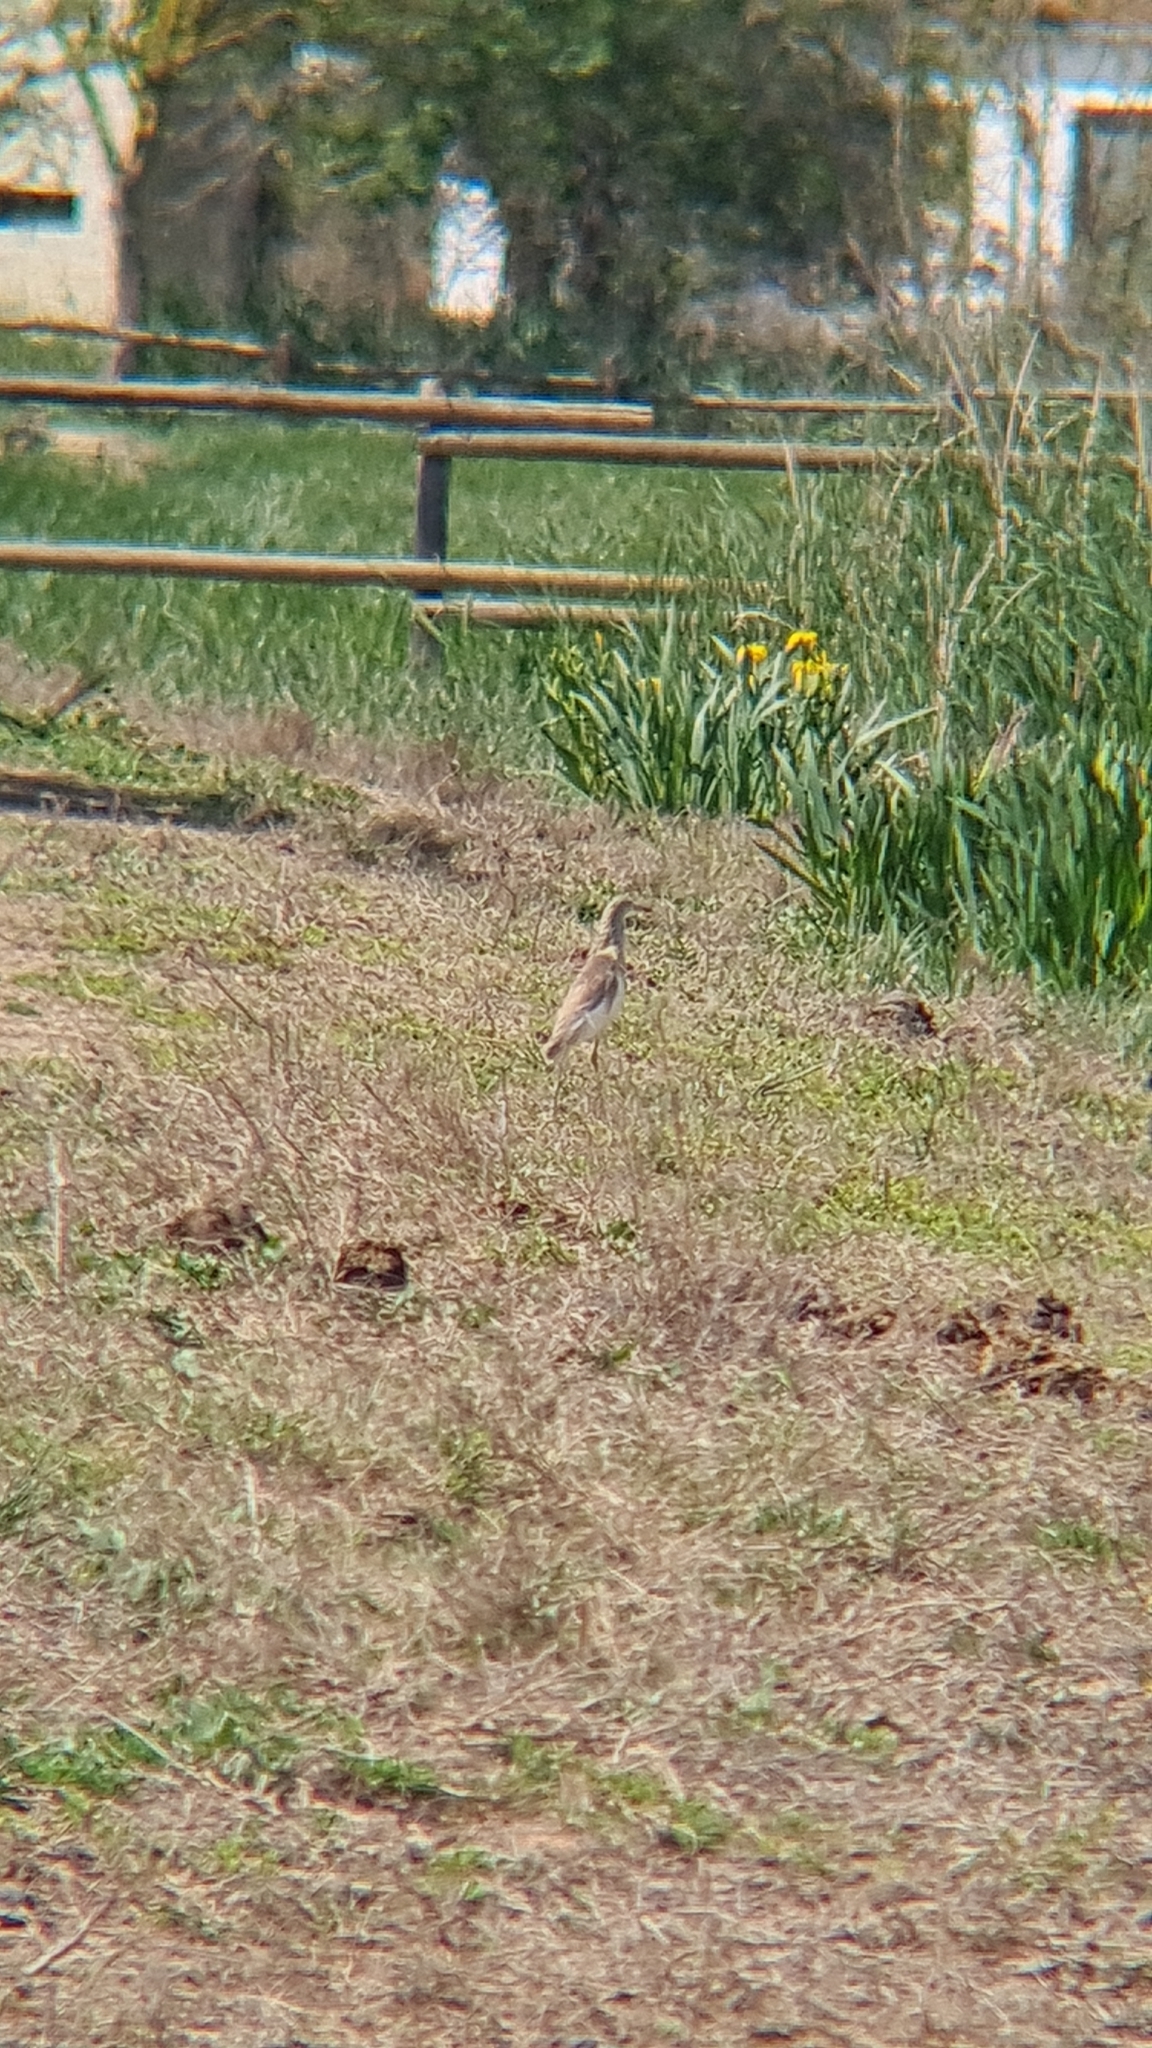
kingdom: Animalia
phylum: Chordata
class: Aves
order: Pelecaniformes
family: Ardeidae
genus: Ardeola
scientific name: Ardeola ralloides
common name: Squacco heron
